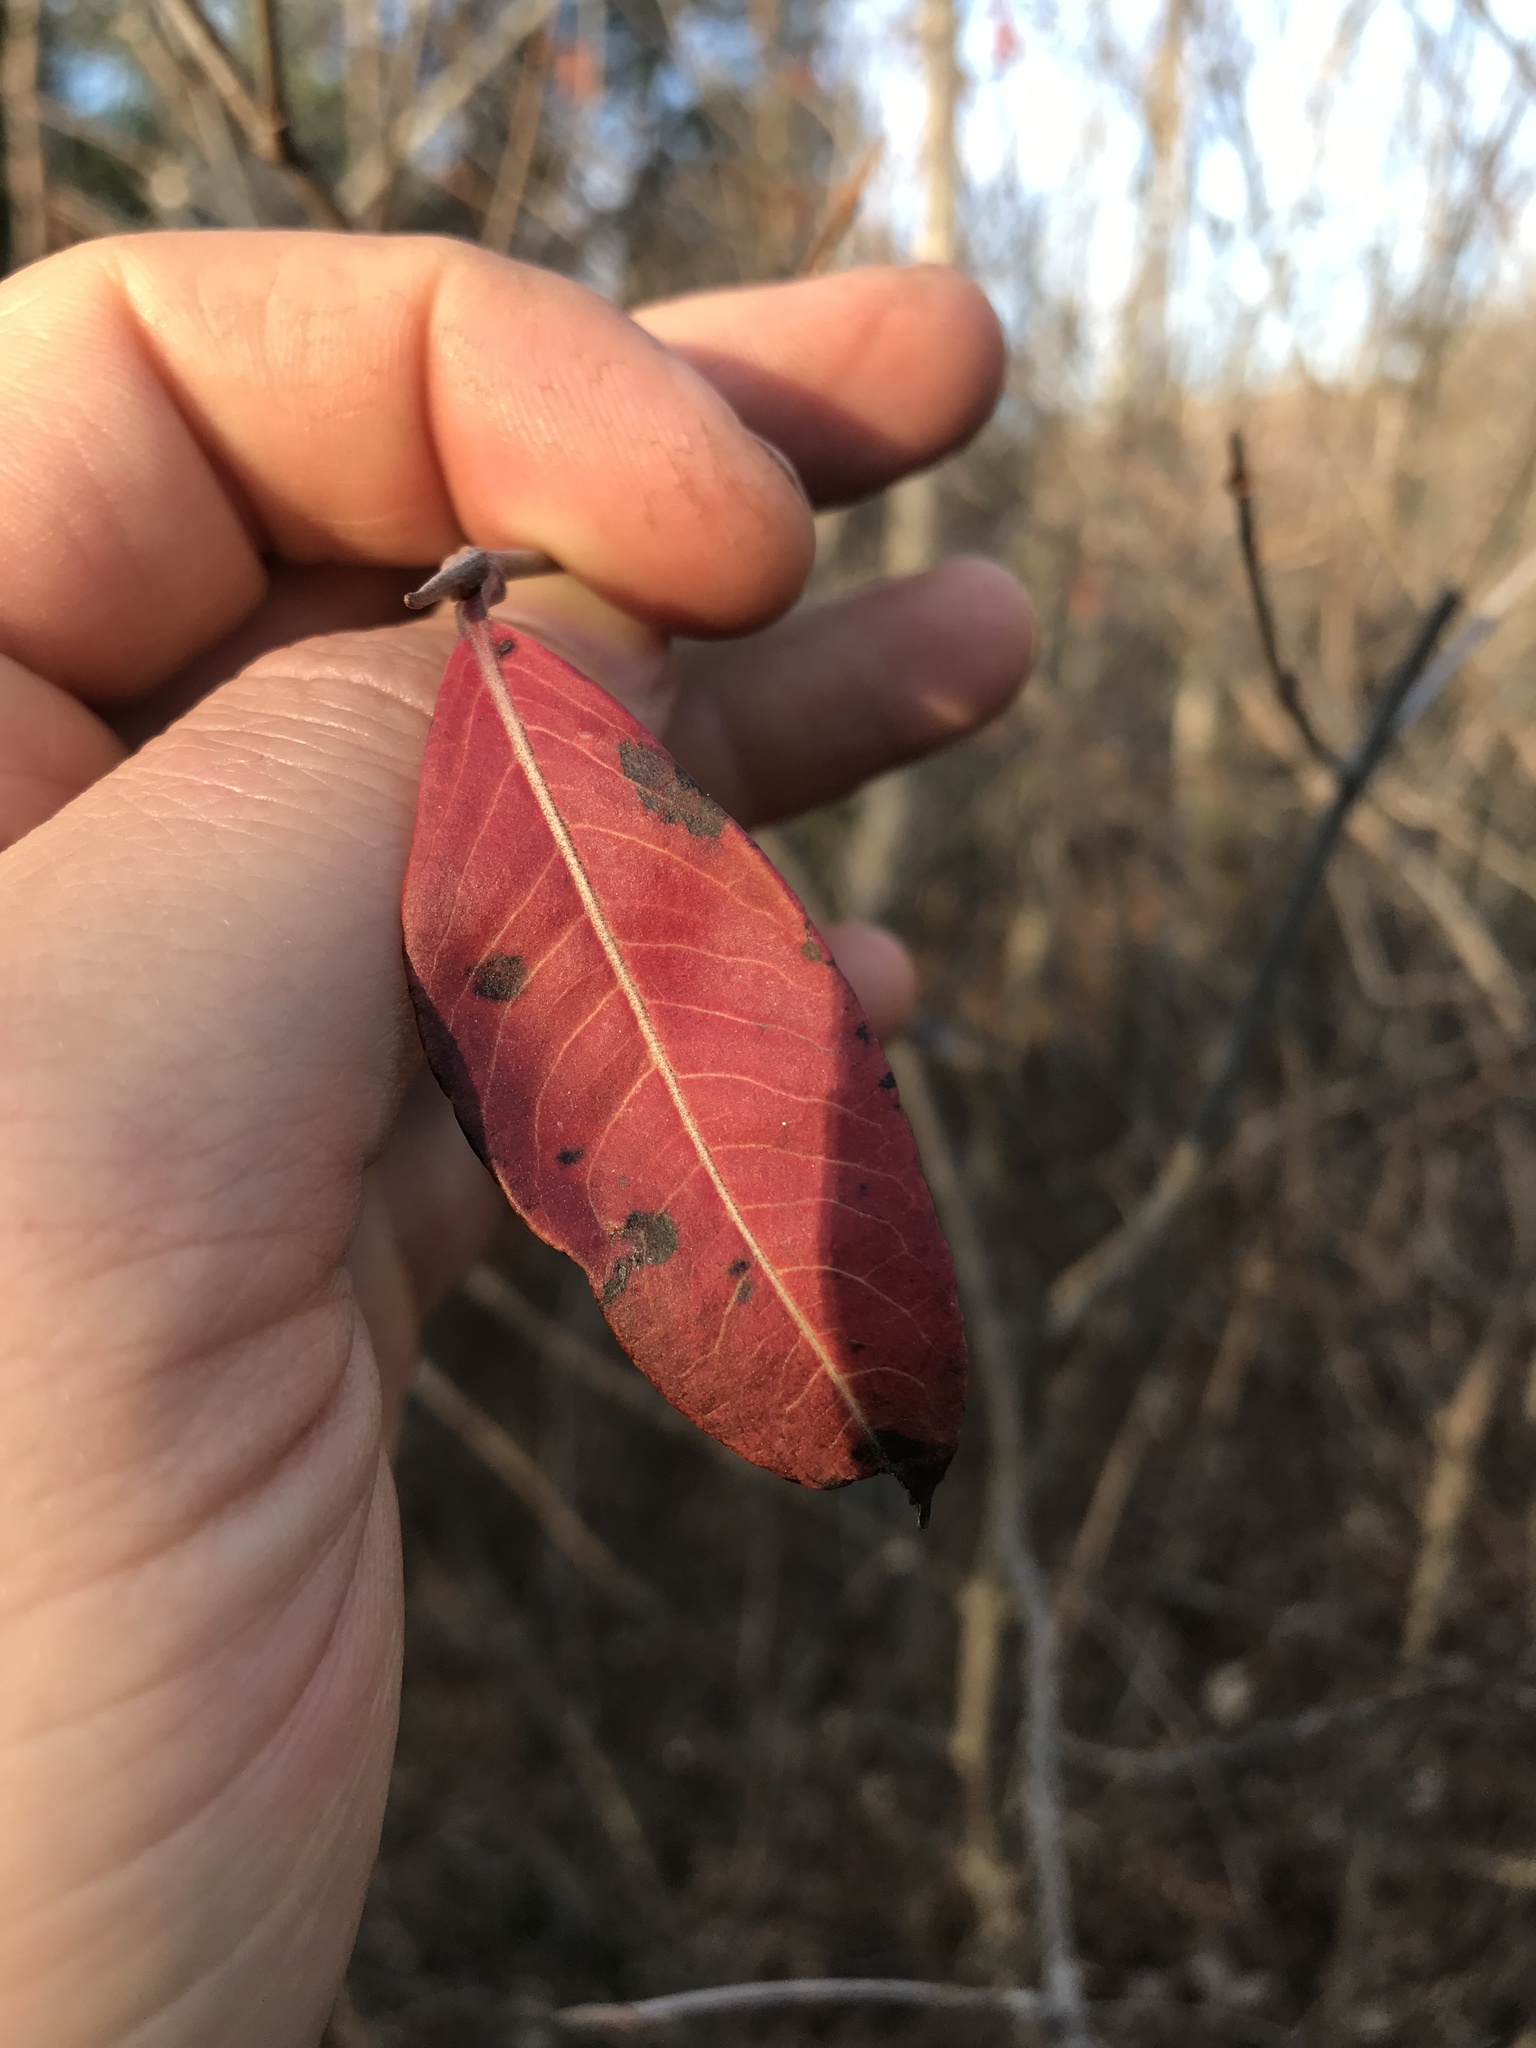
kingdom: Plantae
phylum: Tracheophyta
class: Magnoliopsida
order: Dipsacales
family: Viburnaceae
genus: Viburnum
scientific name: Viburnum cassinoides
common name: Swamp haw
